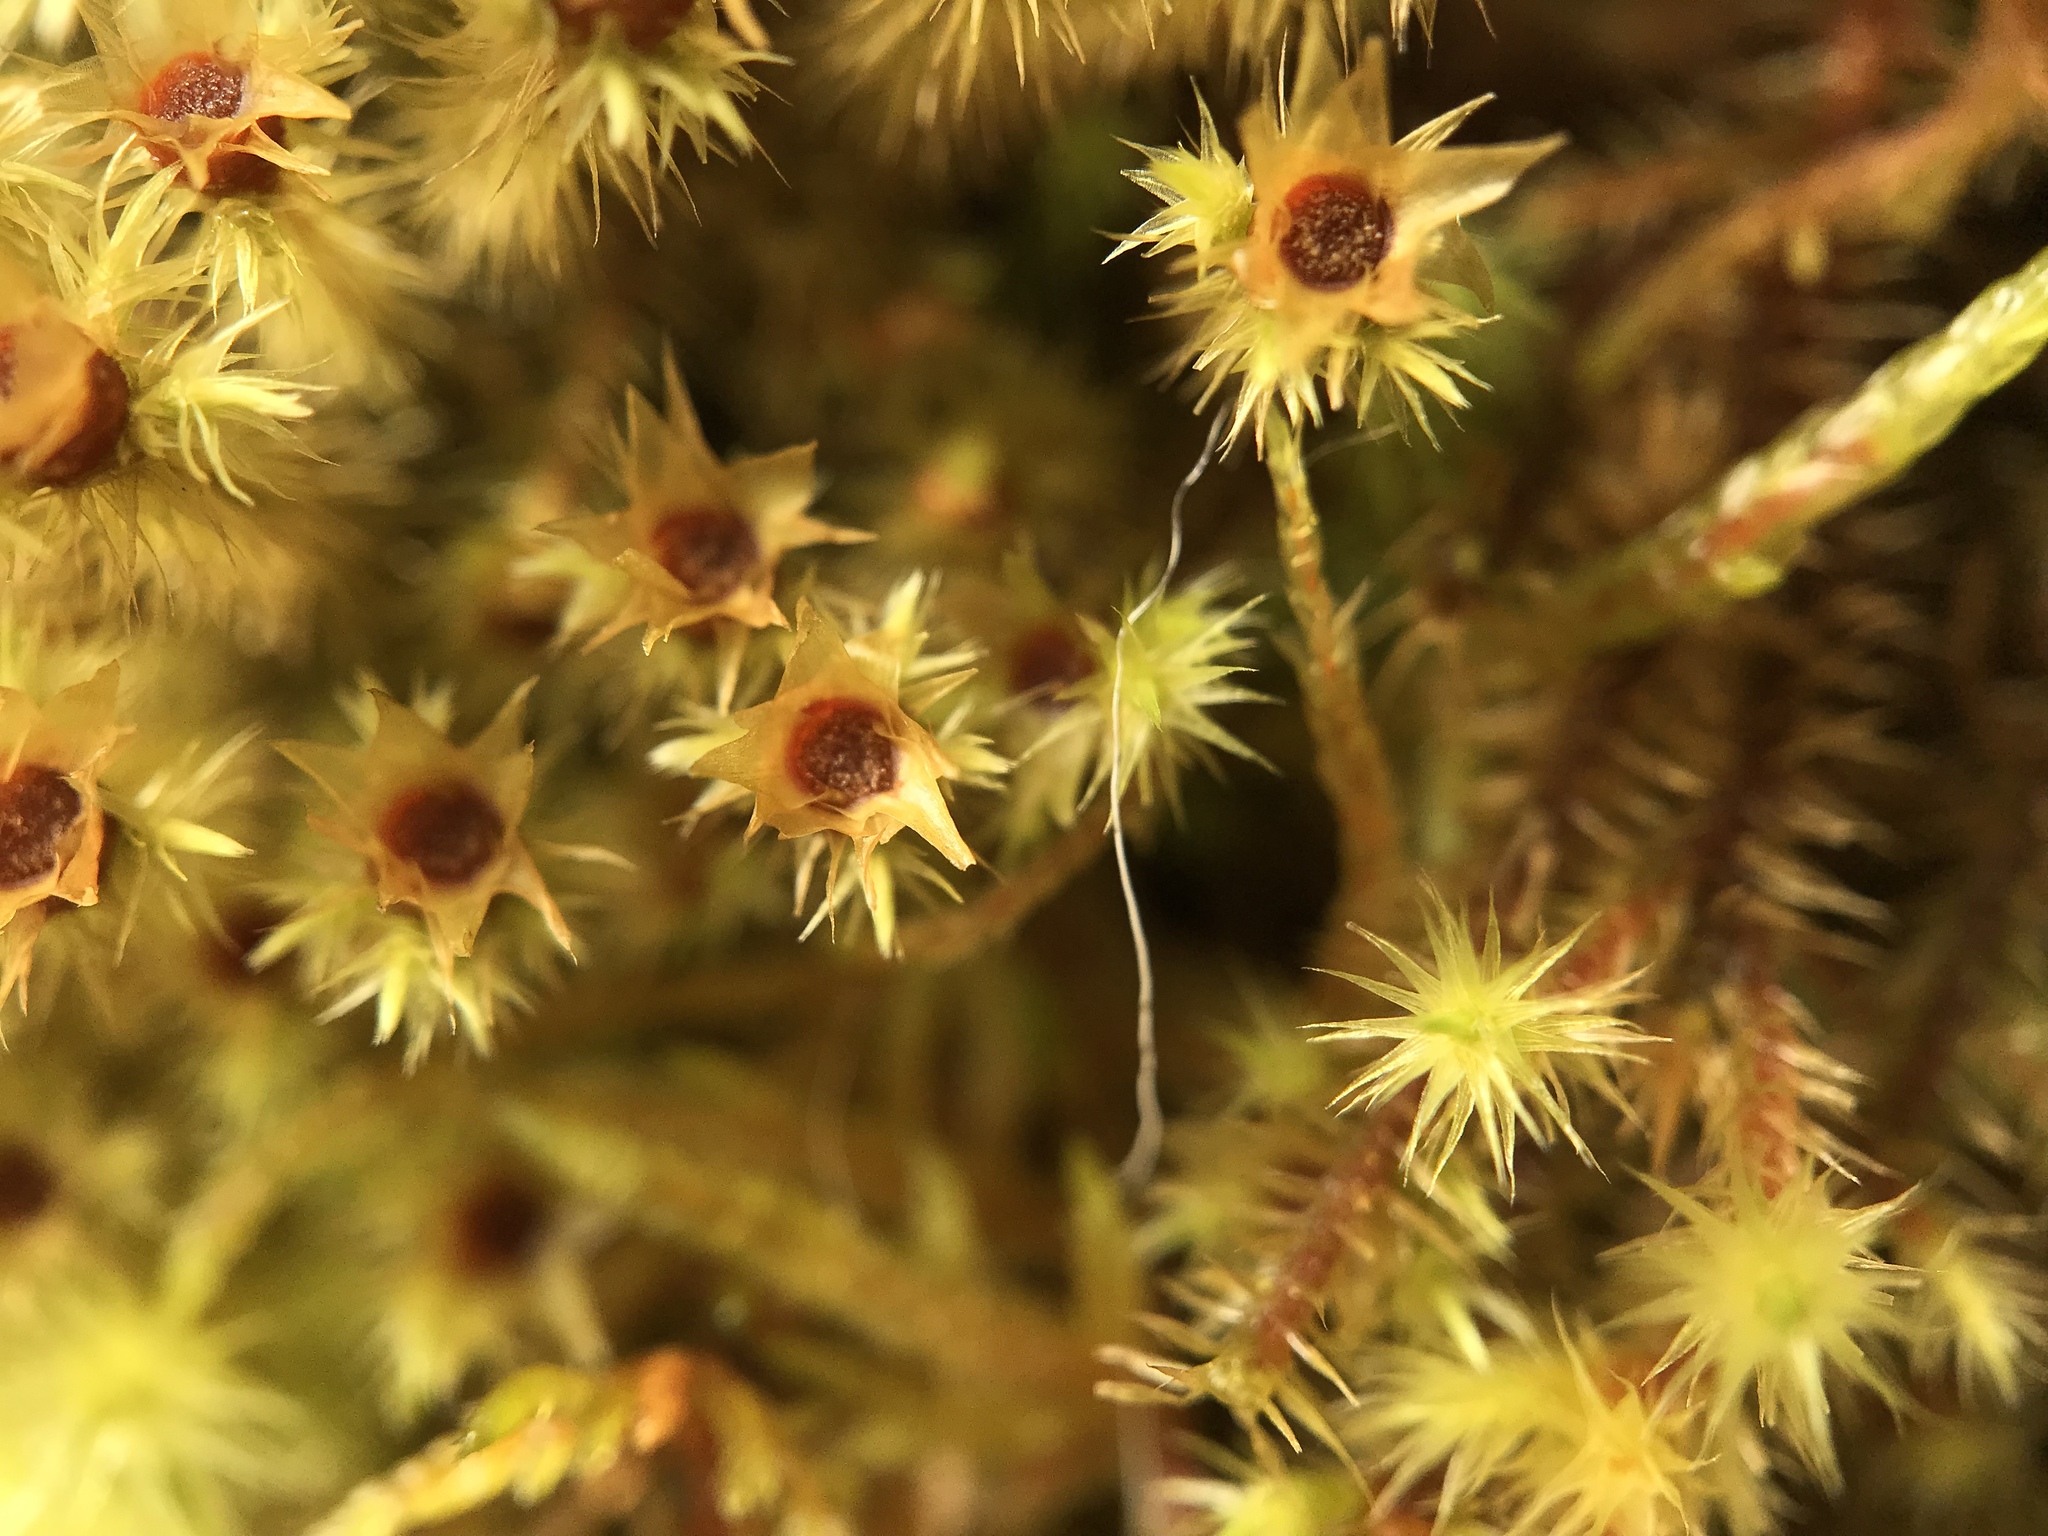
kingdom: Plantae
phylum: Bryophyta
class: Bryopsida
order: Bartramiales
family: Bartramiaceae
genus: Breutelia
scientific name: Breutelia chrysocoma
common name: Bottle-brush moss
